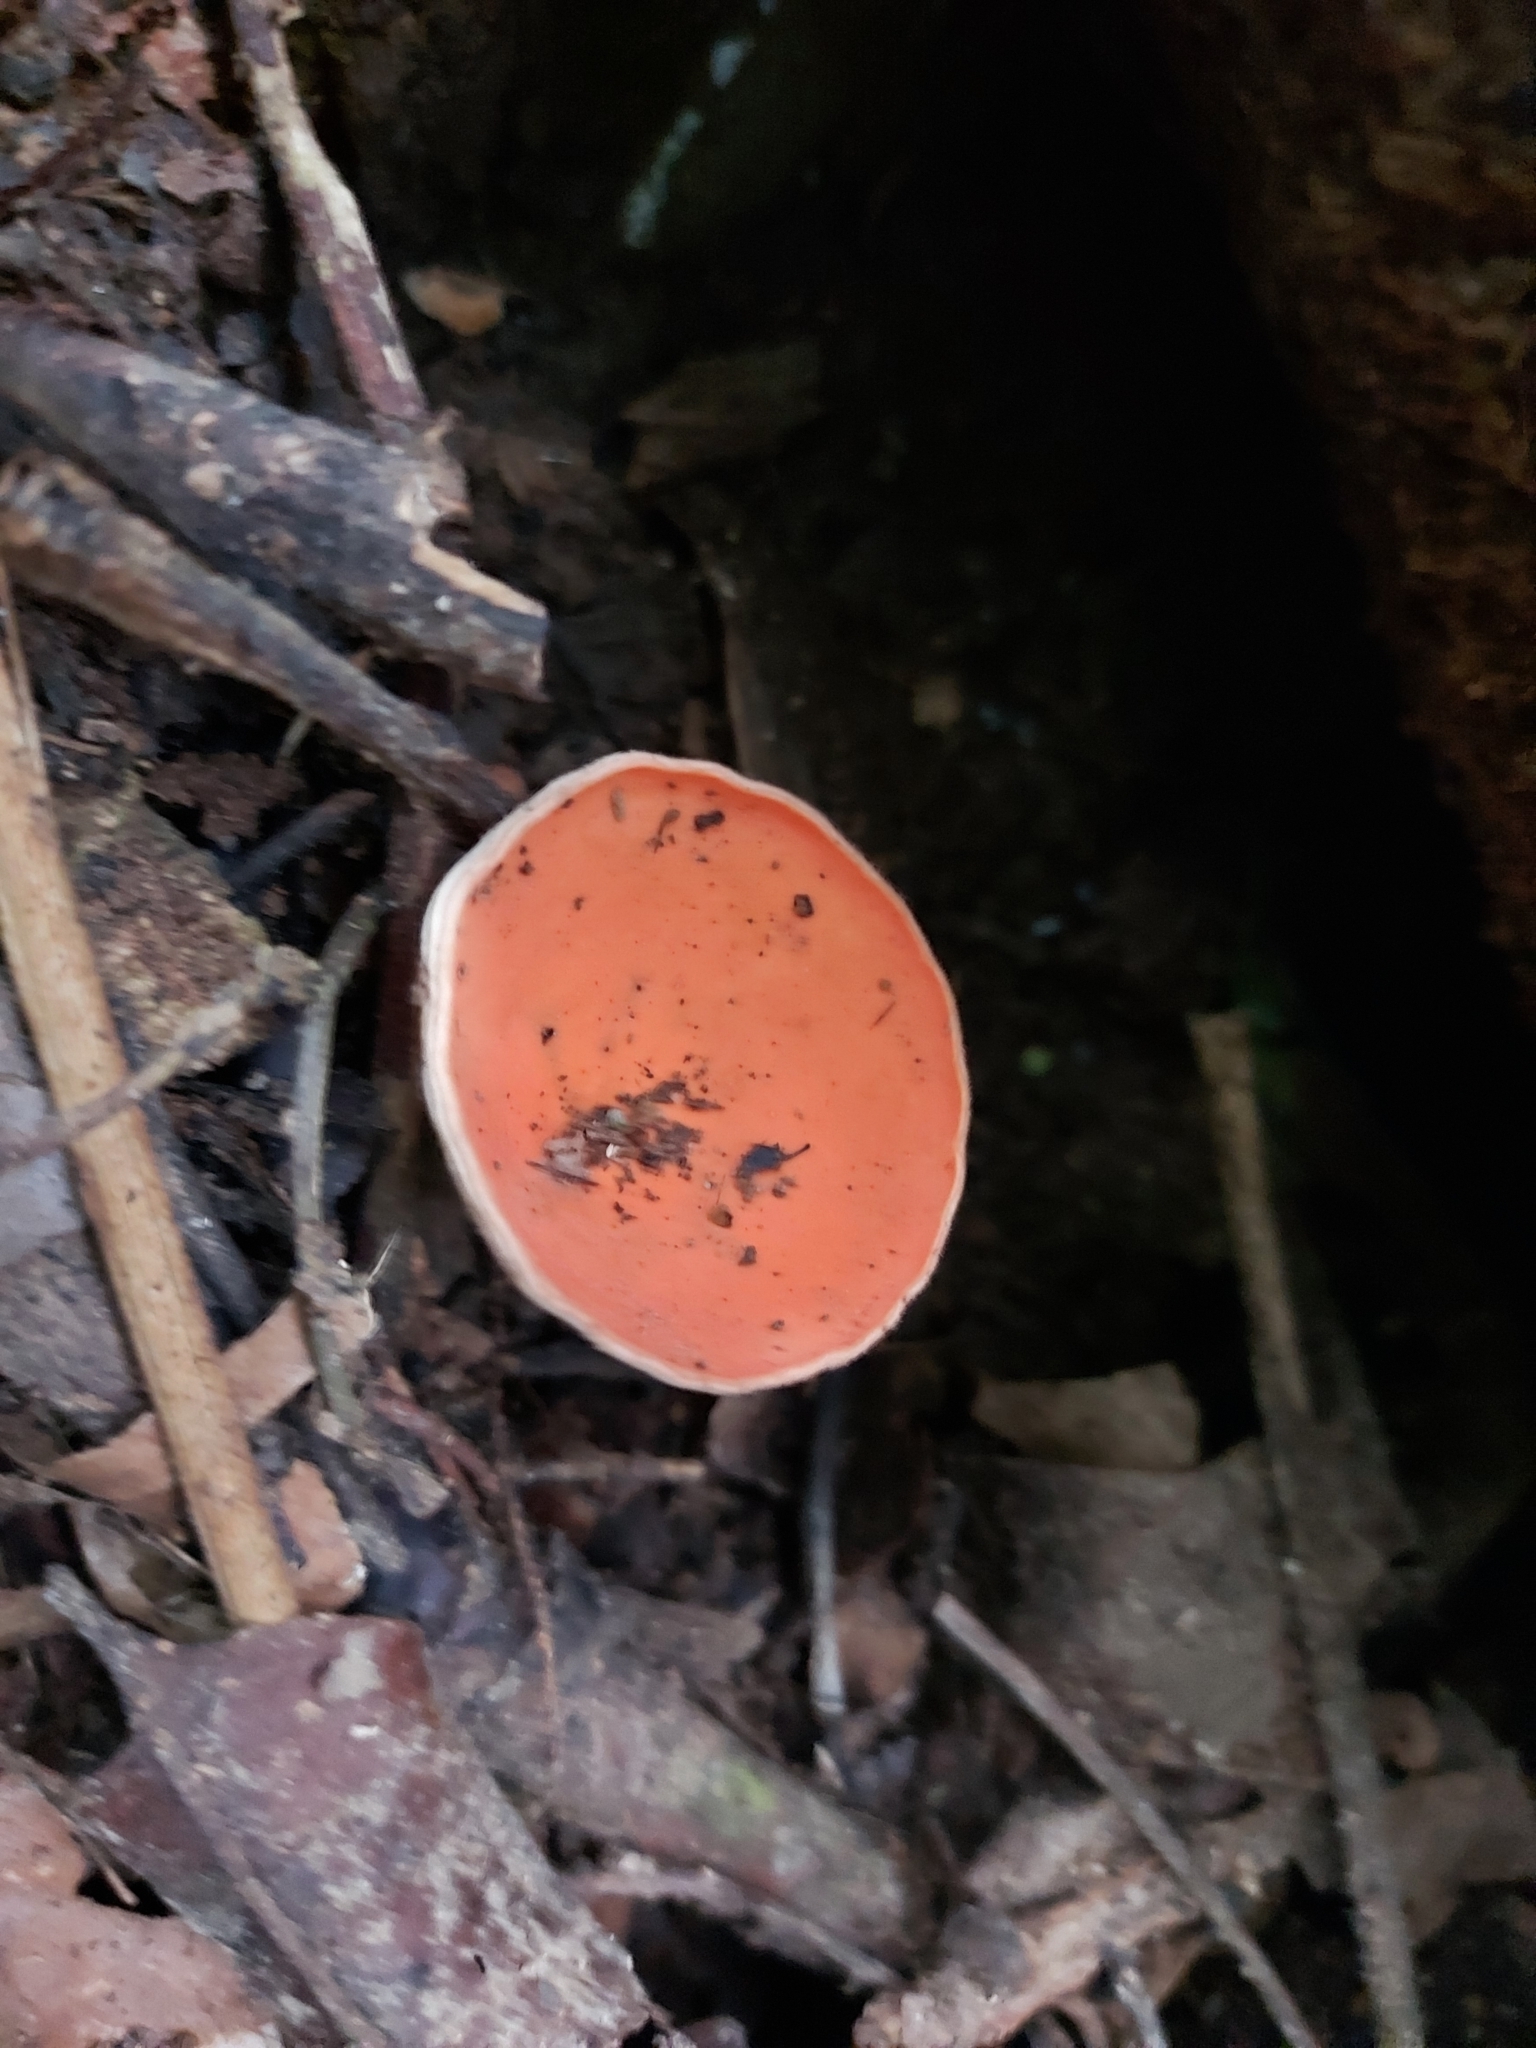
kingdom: Fungi
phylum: Ascomycota
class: Pezizomycetes
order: Pezizales
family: Sarcoscyphaceae
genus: Cookeina
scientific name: Cookeina speciosa
